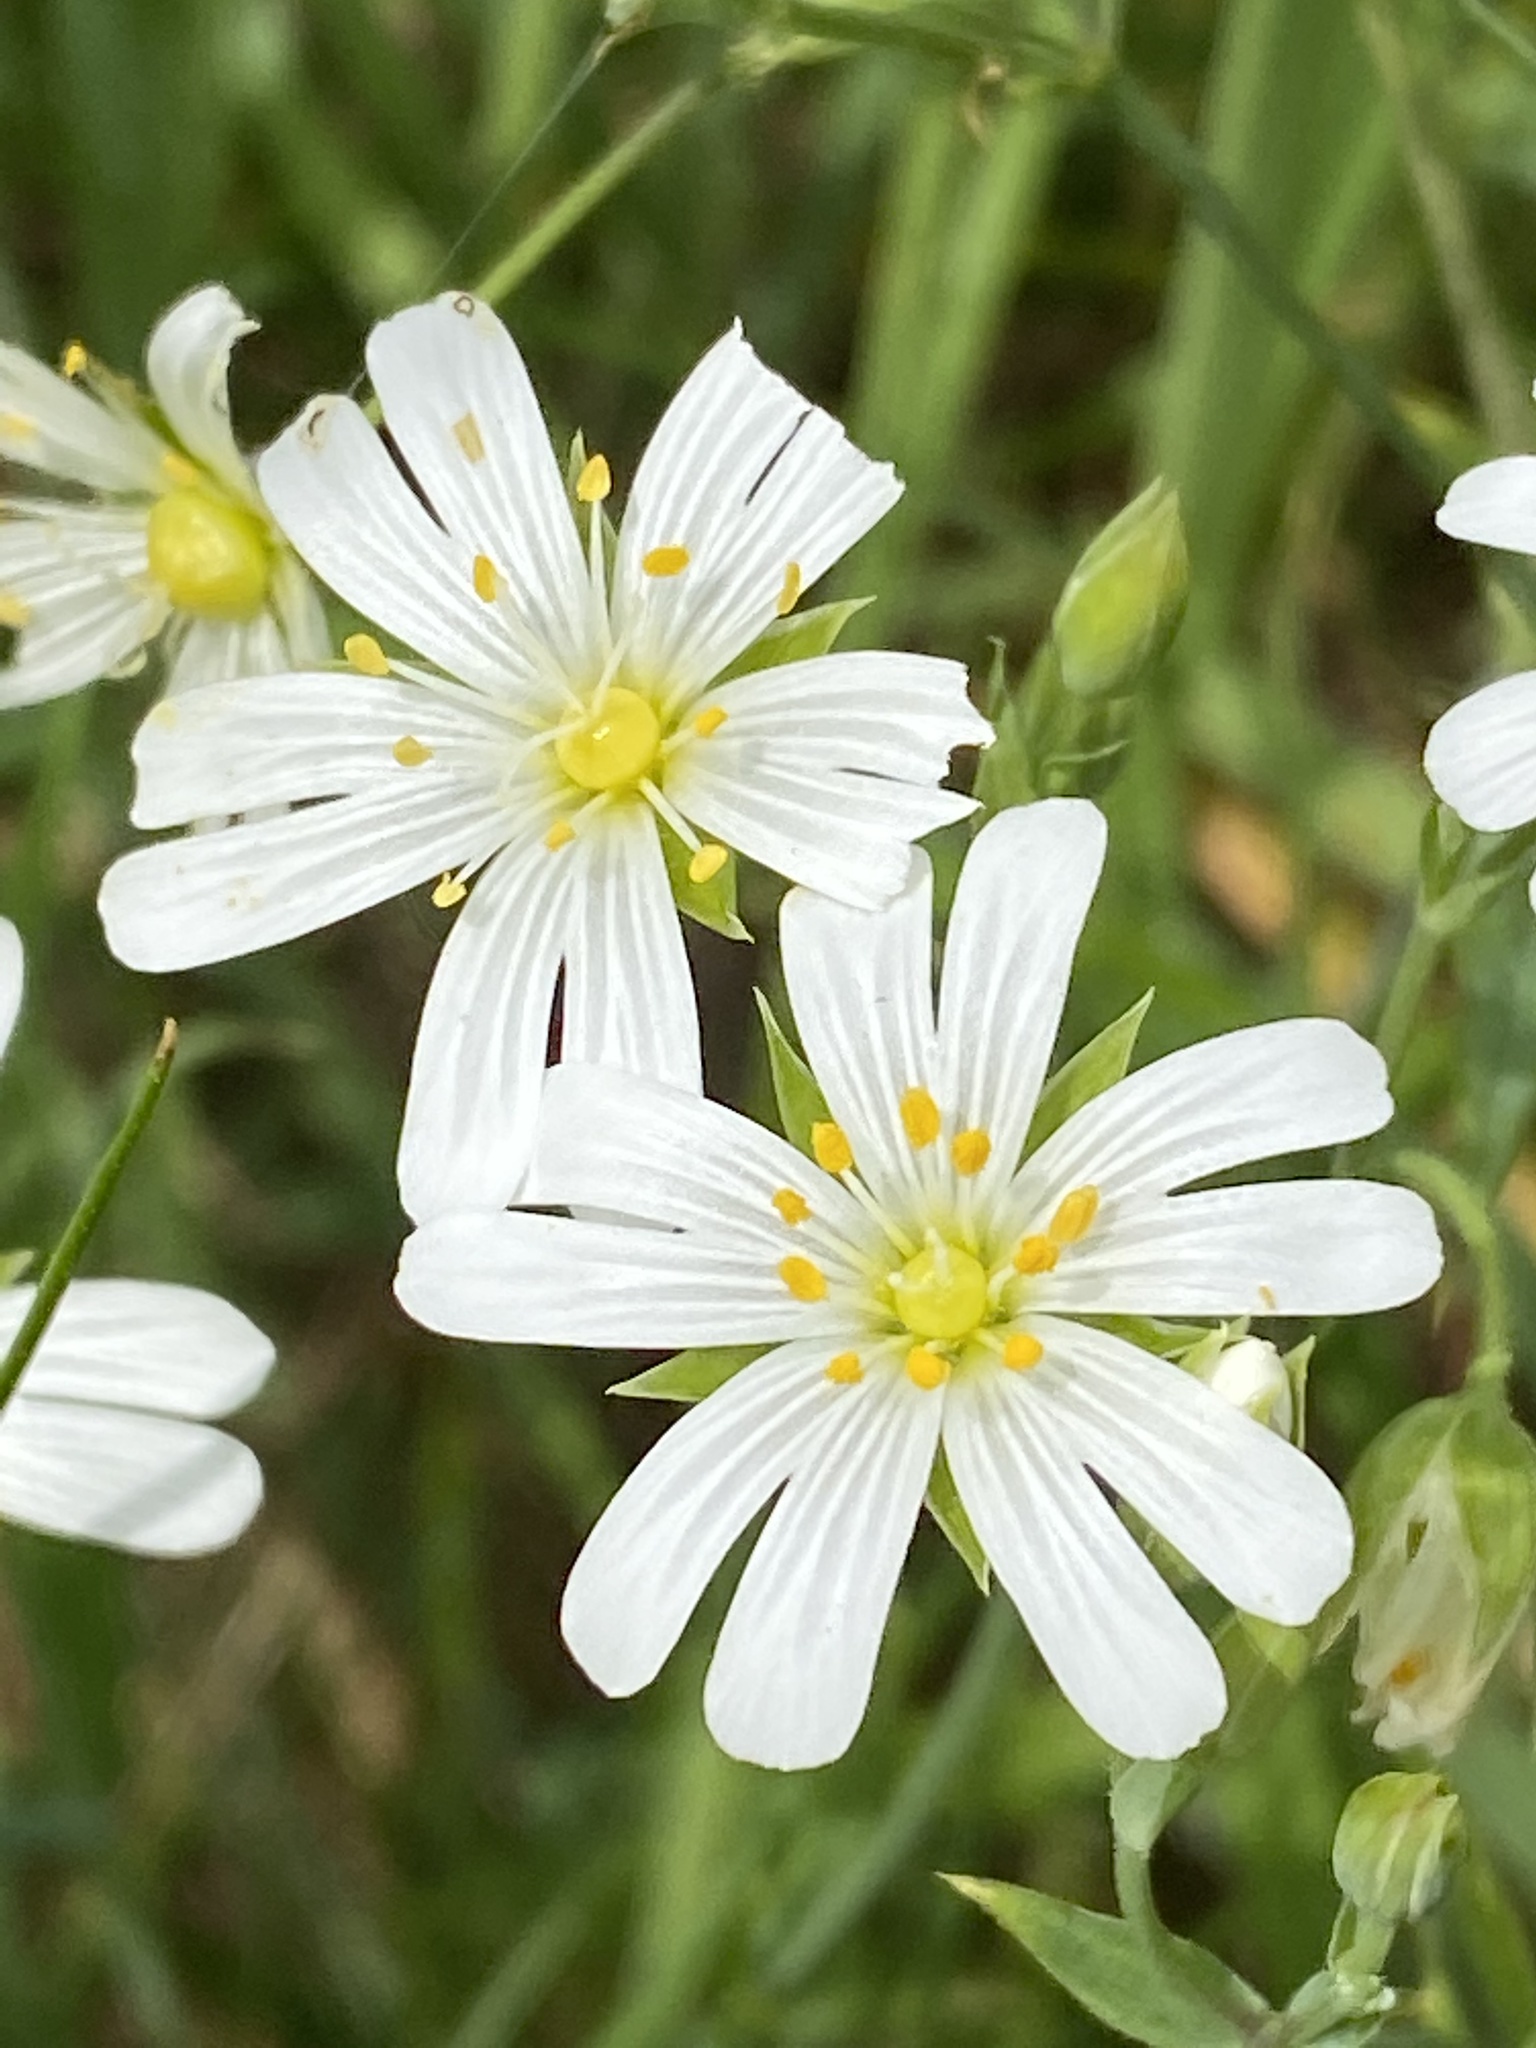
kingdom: Plantae
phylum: Tracheophyta
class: Magnoliopsida
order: Caryophyllales
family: Caryophyllaceae
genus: Rabelera
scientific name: Rabelera holostea
